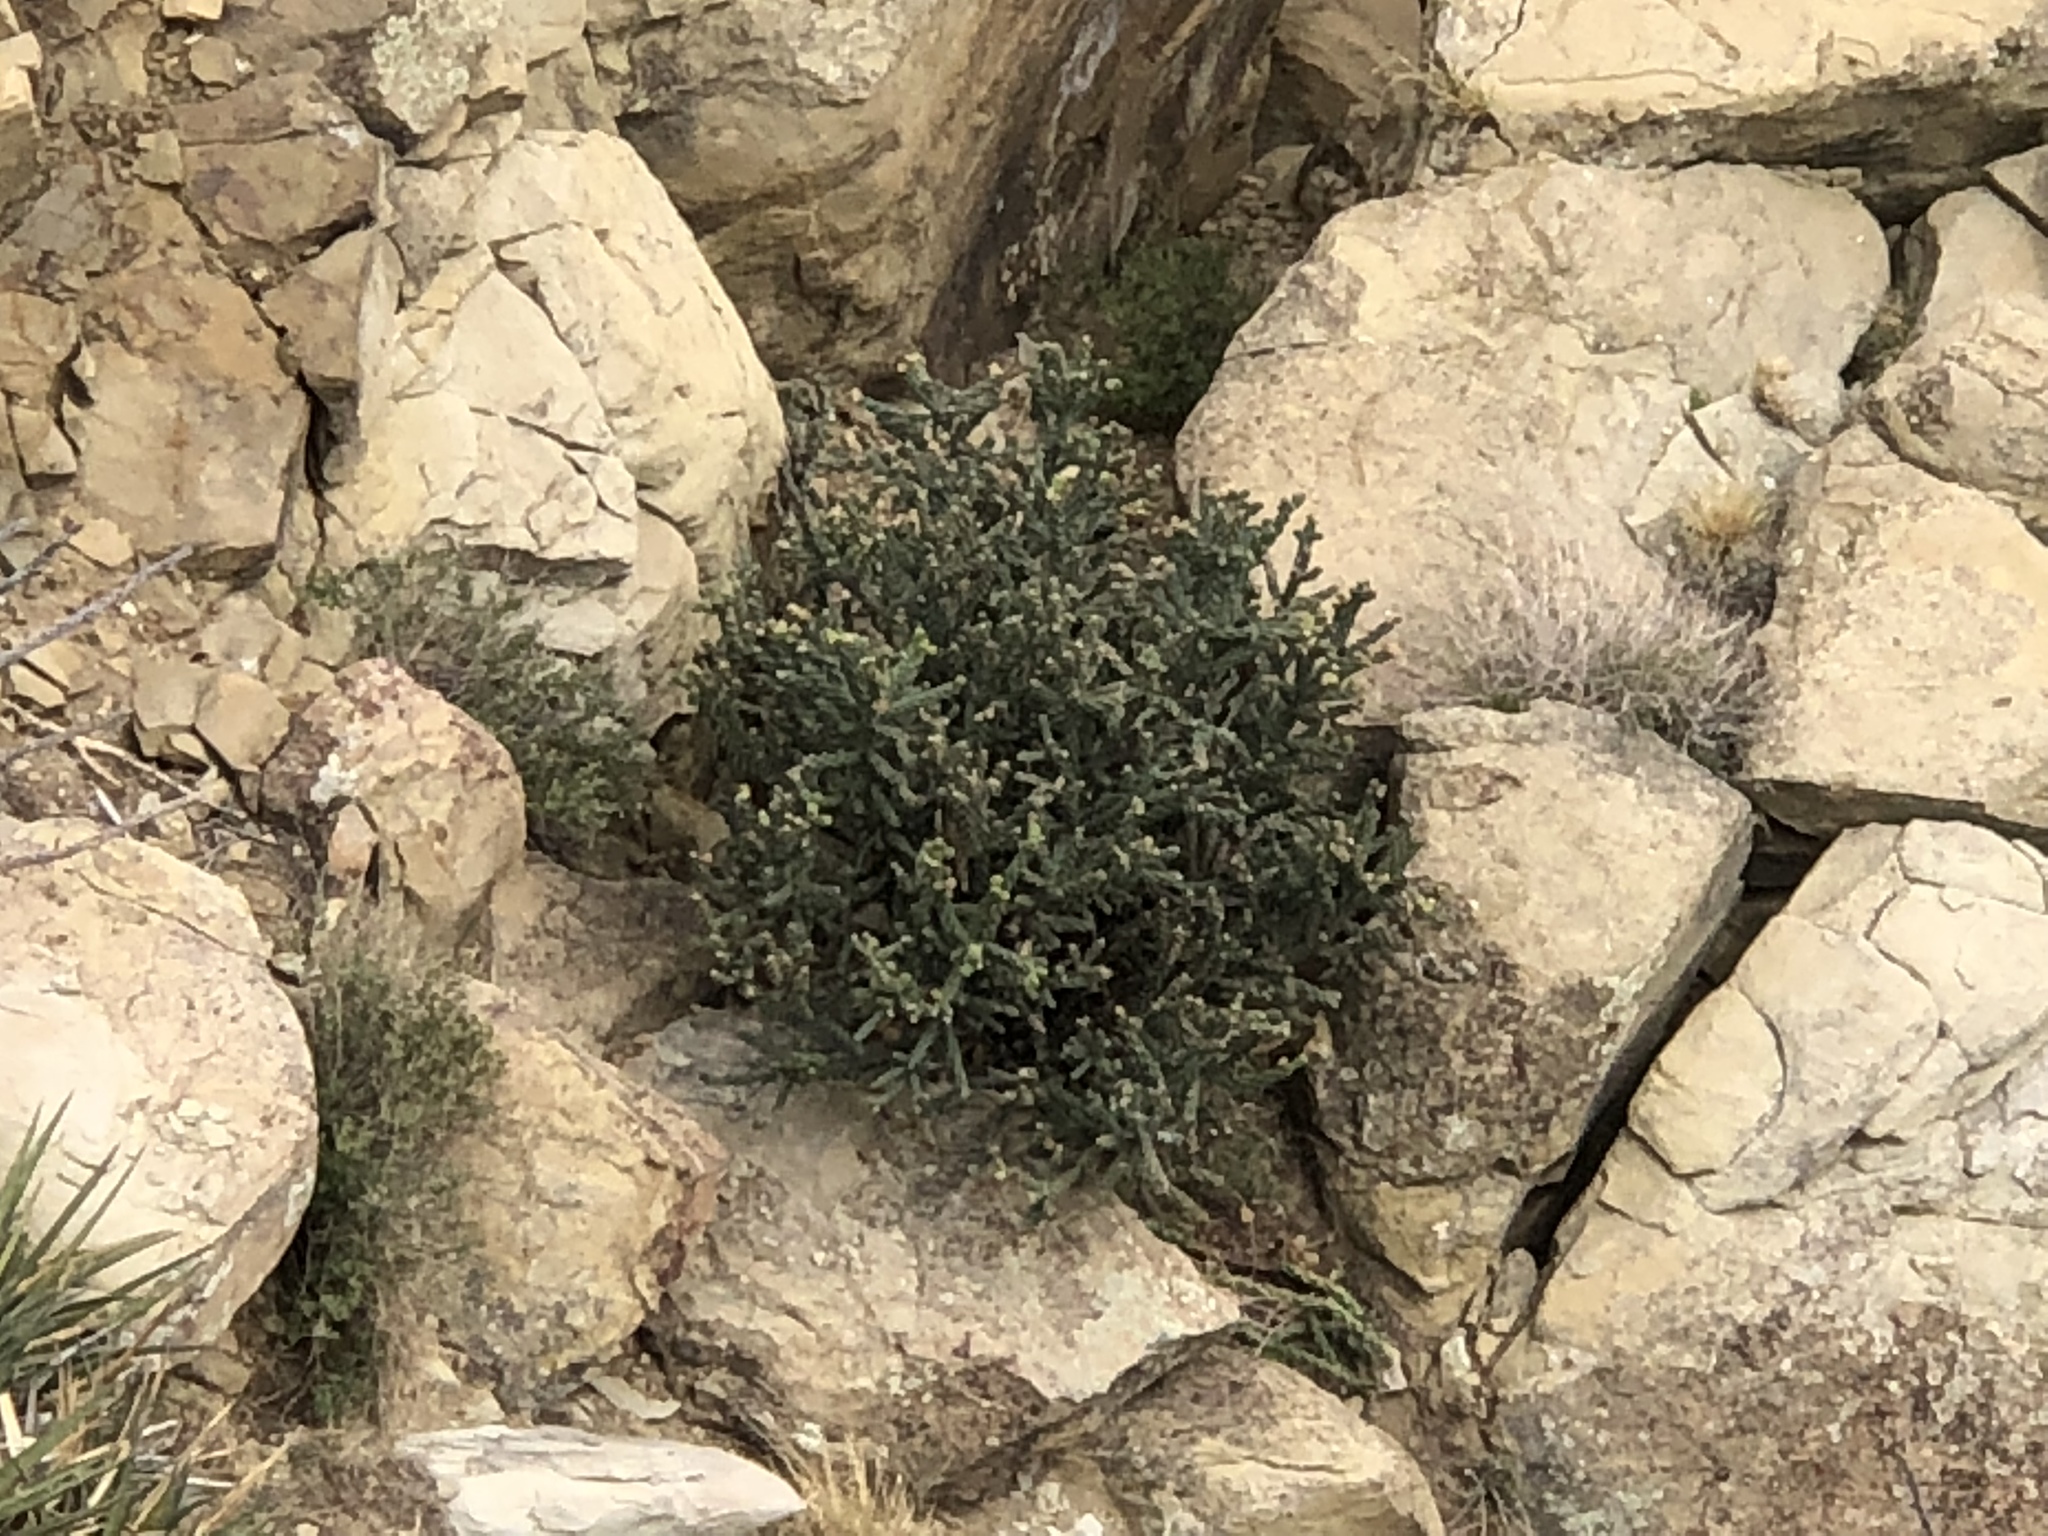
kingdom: Plantae
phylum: Tracheophyta
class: Magnoliopsida
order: Caryophyllales
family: Cactaceae
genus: Cylindropuntia
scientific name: Cylindropuntia imbricata
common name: Candelabrum cactus
